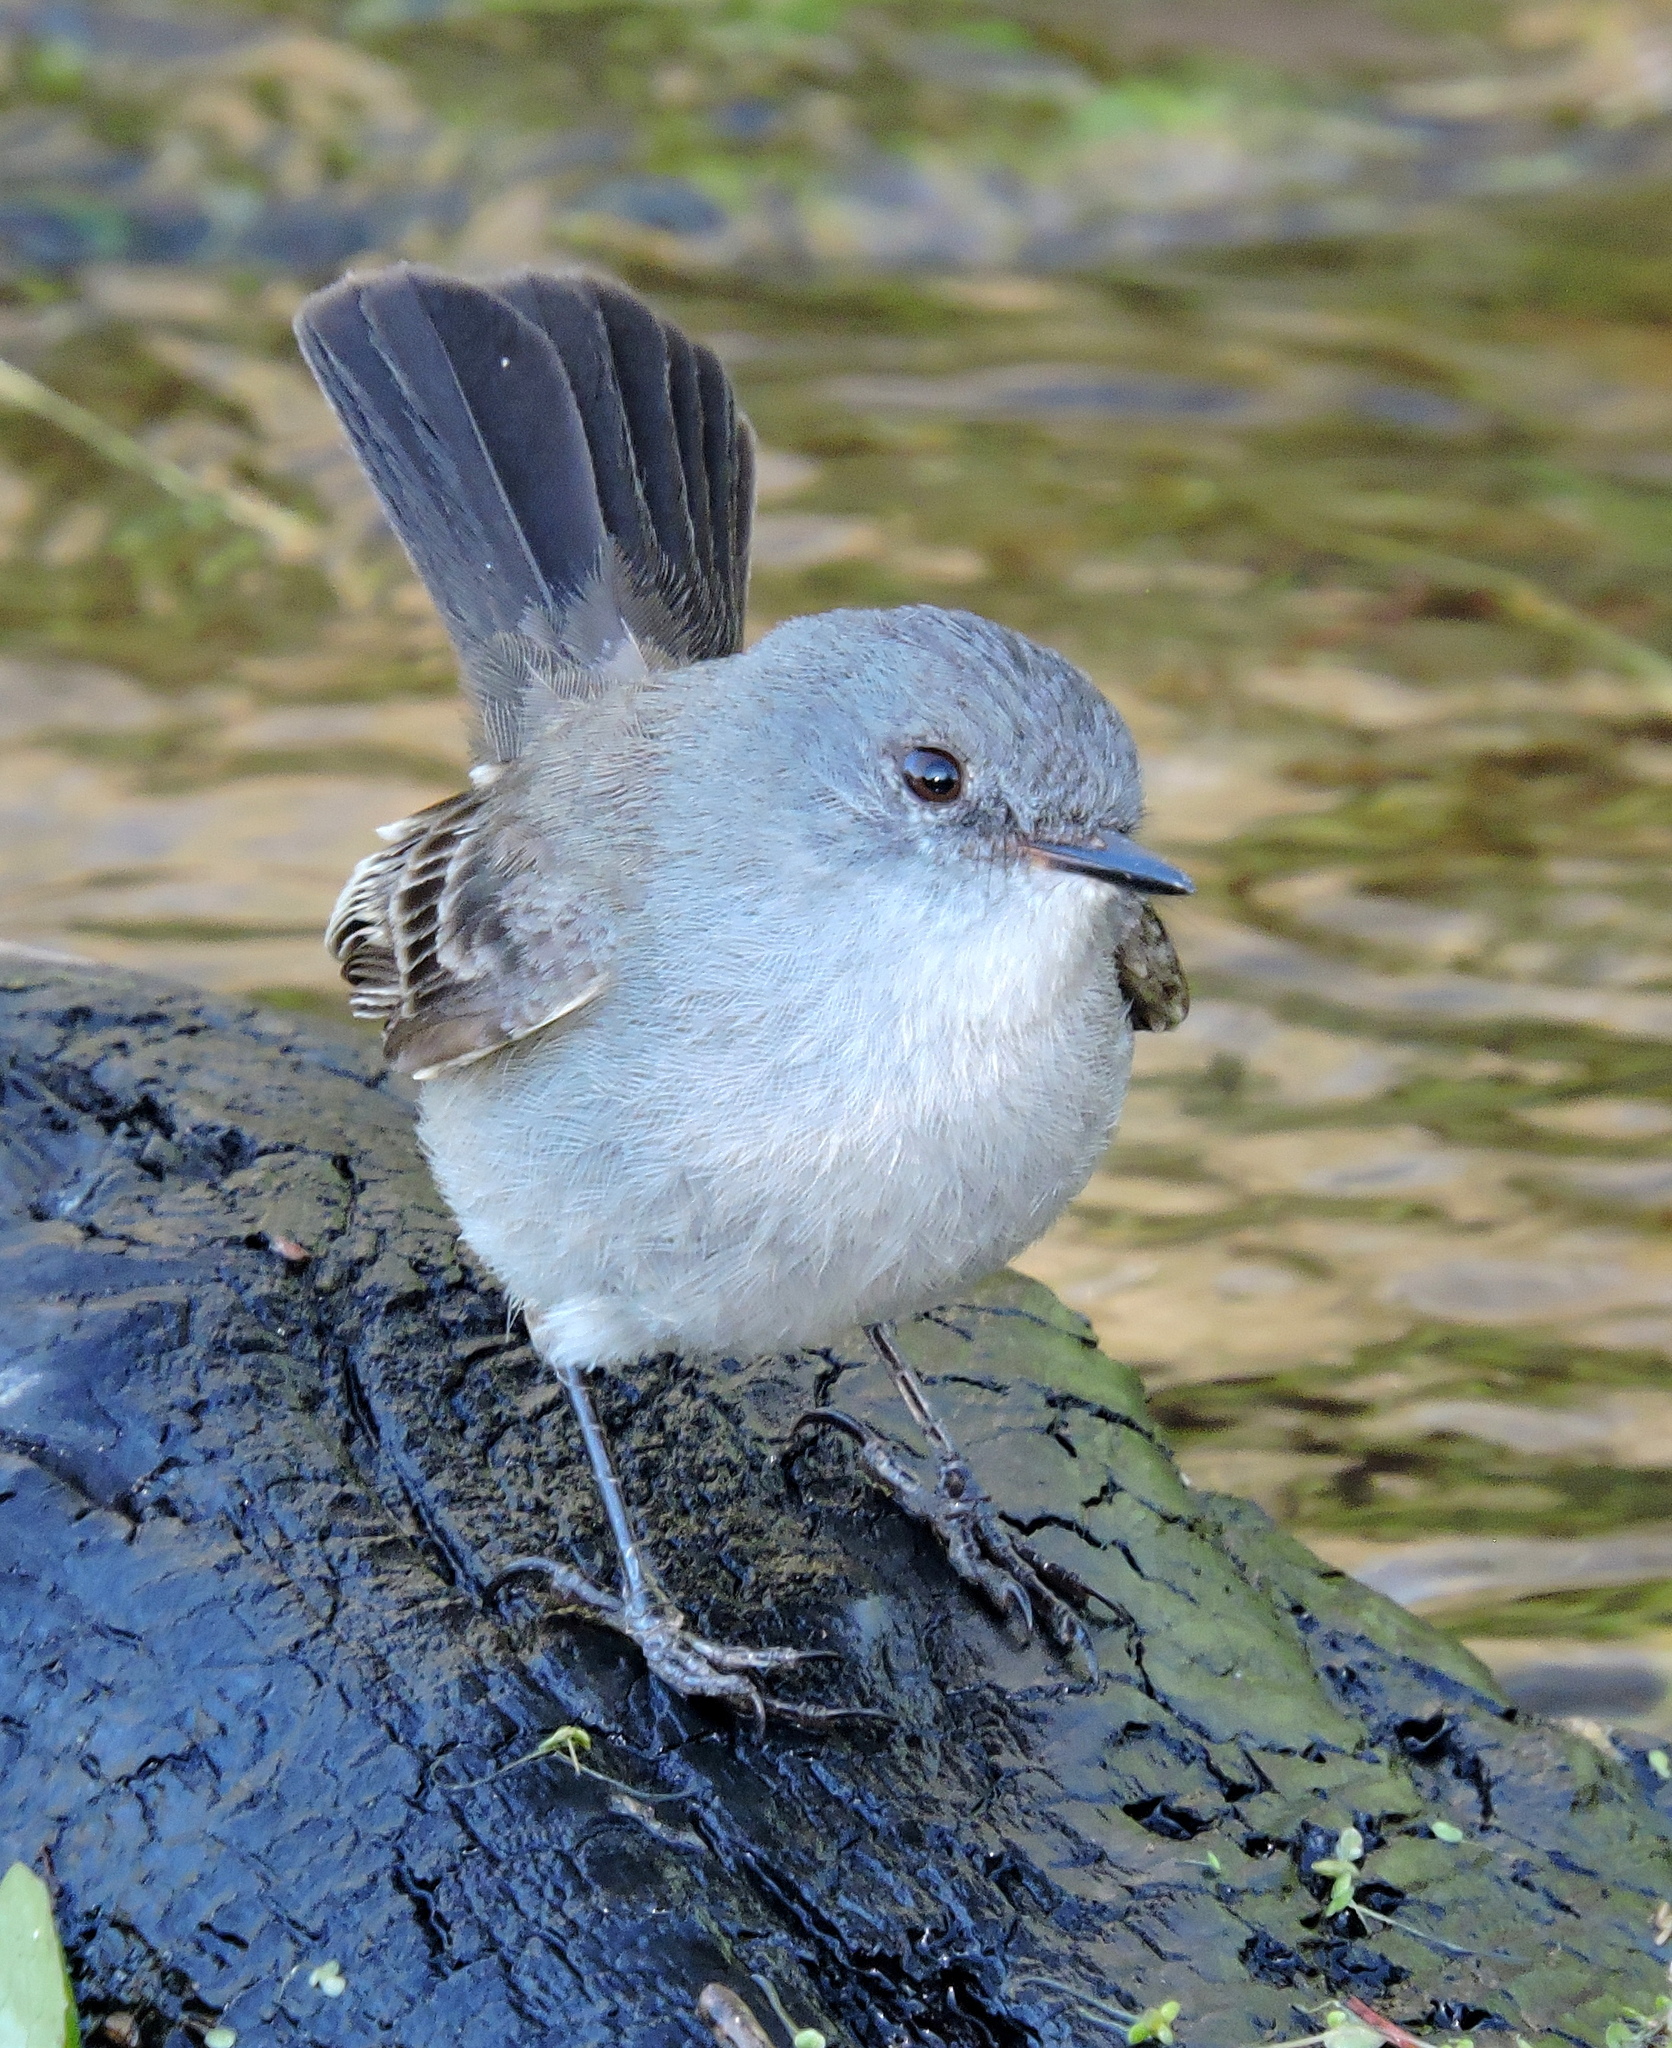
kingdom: Animalia
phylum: Chordata
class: Aves
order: Passeriformes
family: Tyrannidae
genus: Serpophaga
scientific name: Serpophaga nigricans
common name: Sooty tyrannulet
